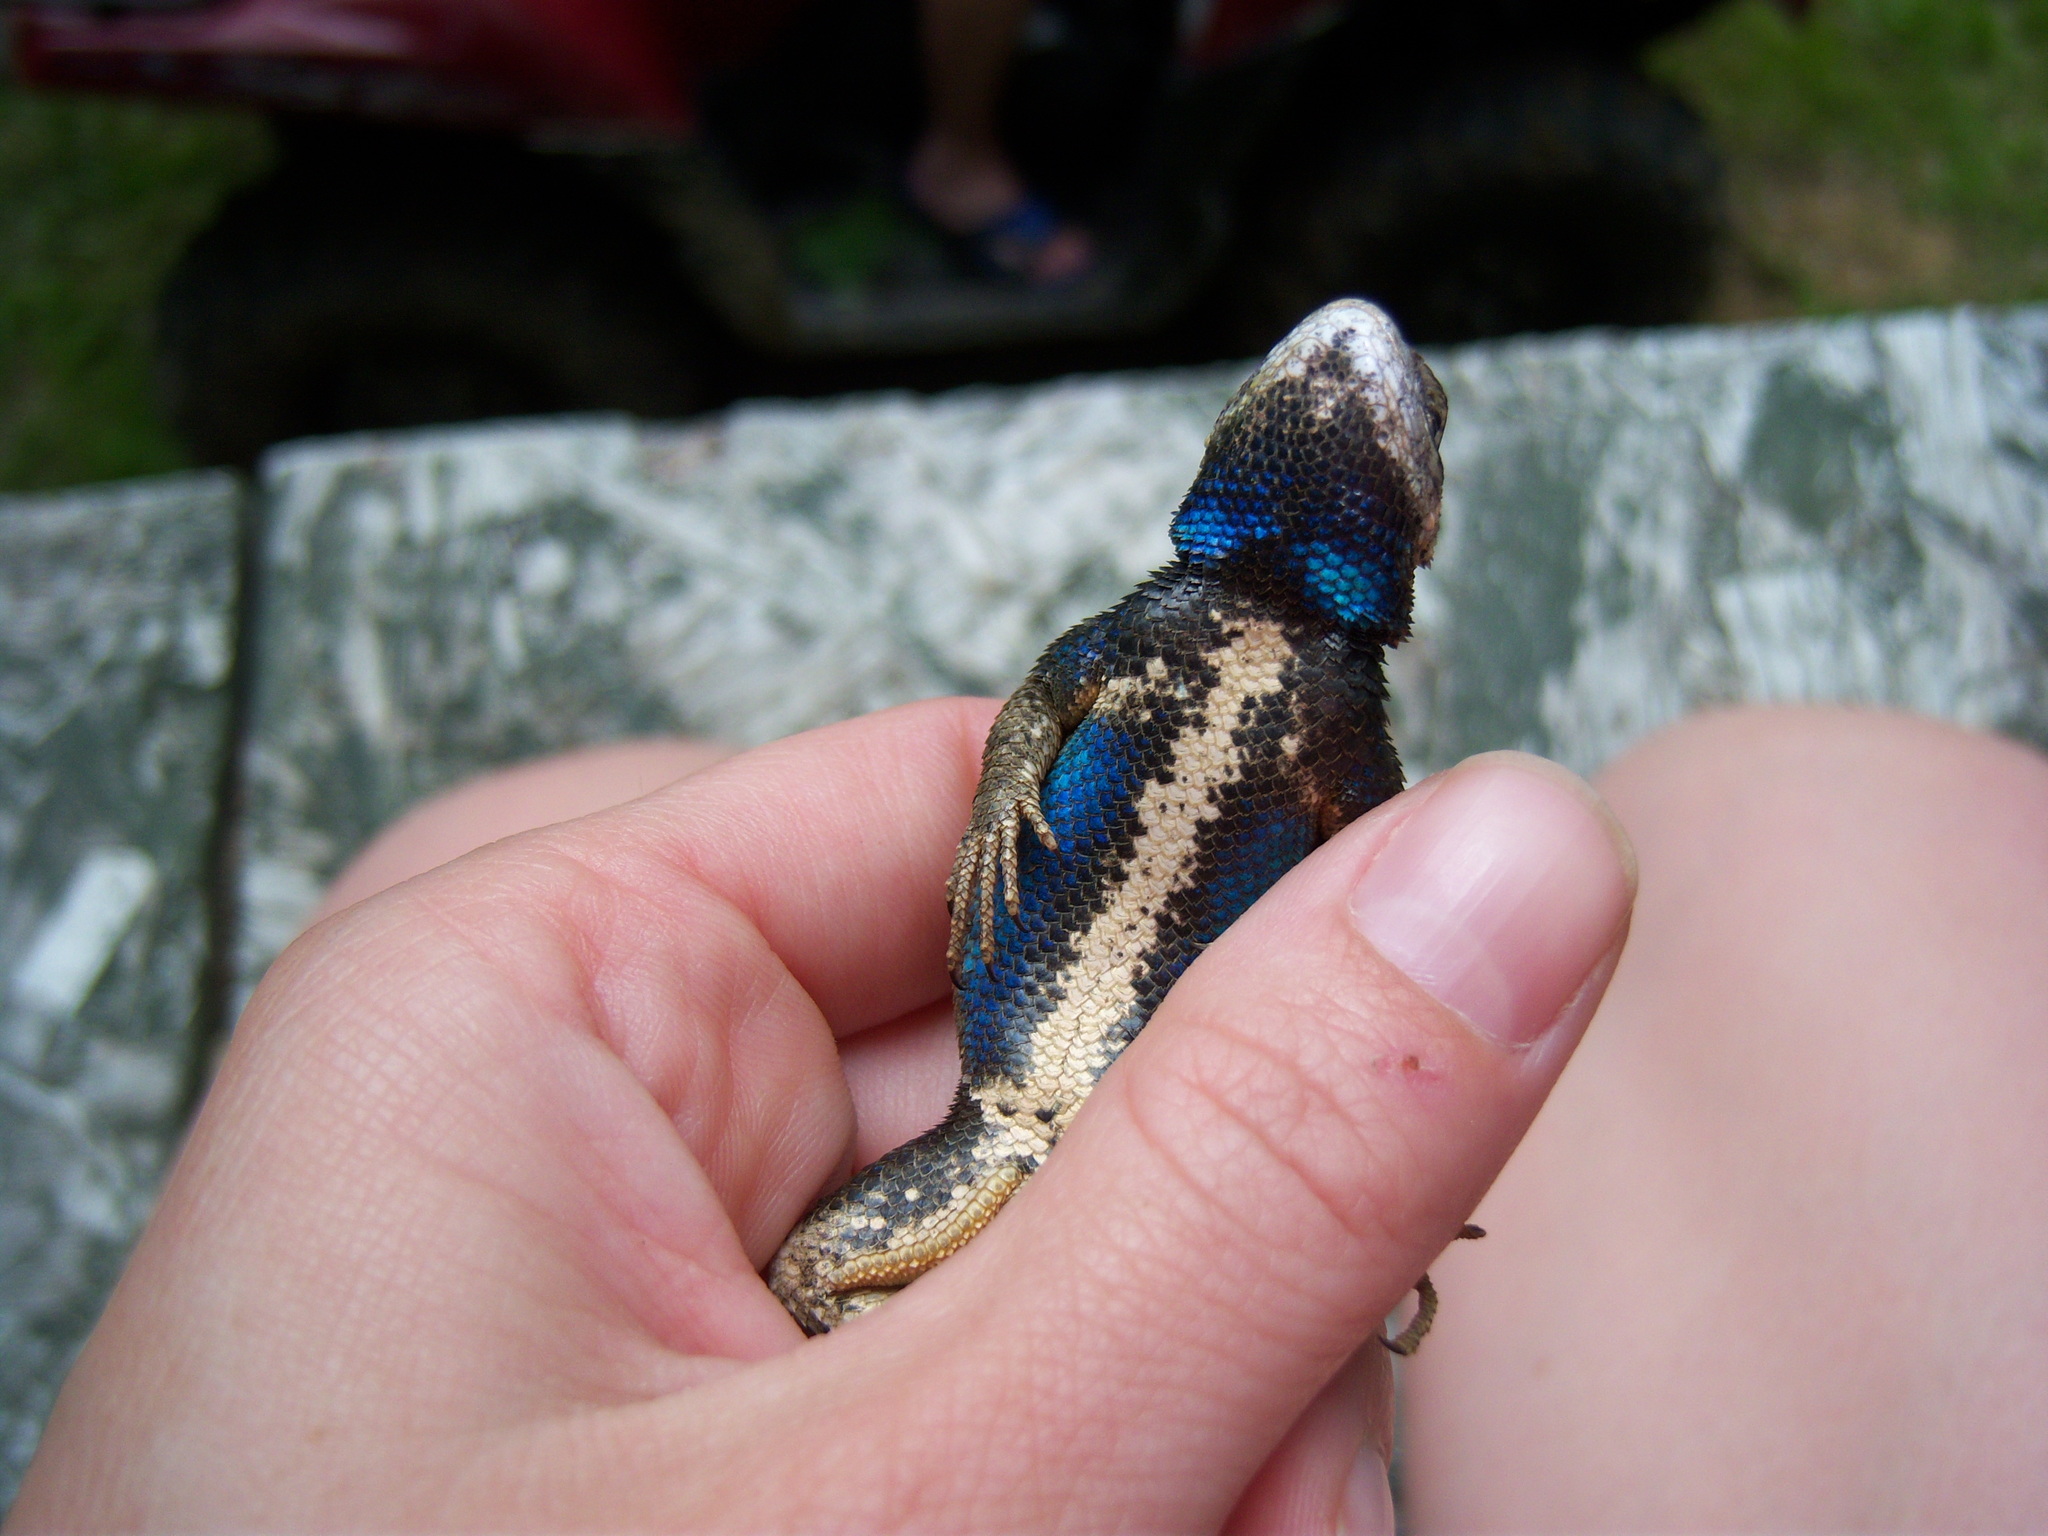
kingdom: Animalia
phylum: Chordata
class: Squamata
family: Phrynosomatidae
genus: Sceloporus
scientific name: Sceloporus undulatus
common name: Eastern fence lizard
